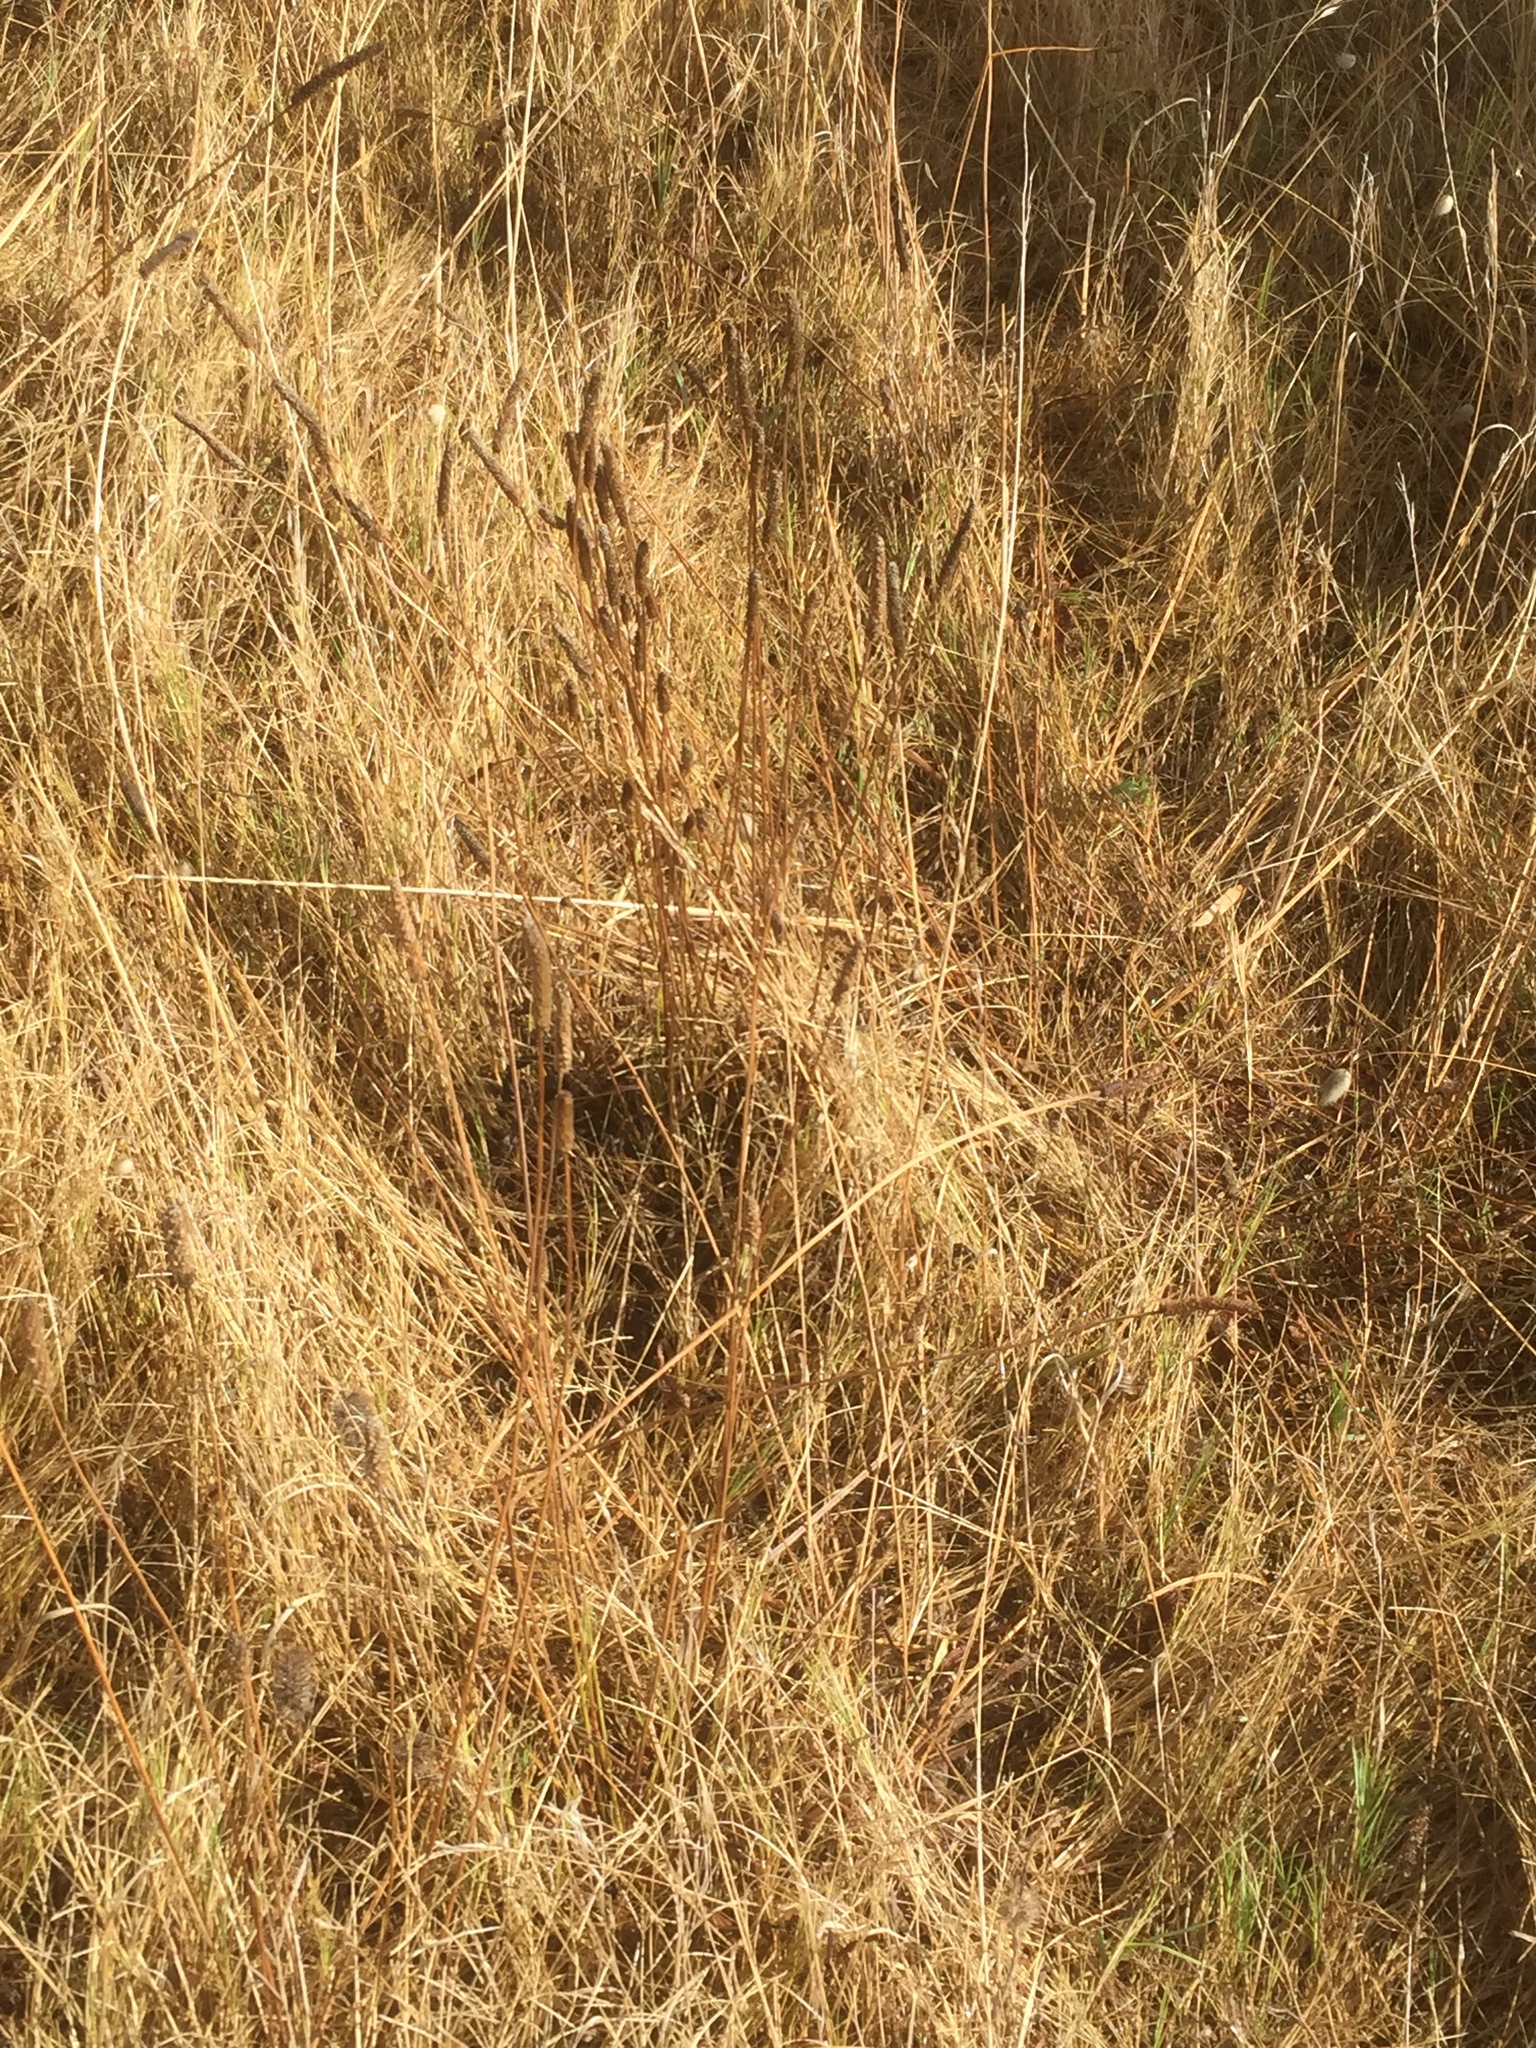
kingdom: Plantae
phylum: Tracheophyta
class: Magnoliopsida
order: Lamiales
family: Plantaginaceae
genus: Plantago
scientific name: Plantago lanceolata
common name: Ribwort plantain
